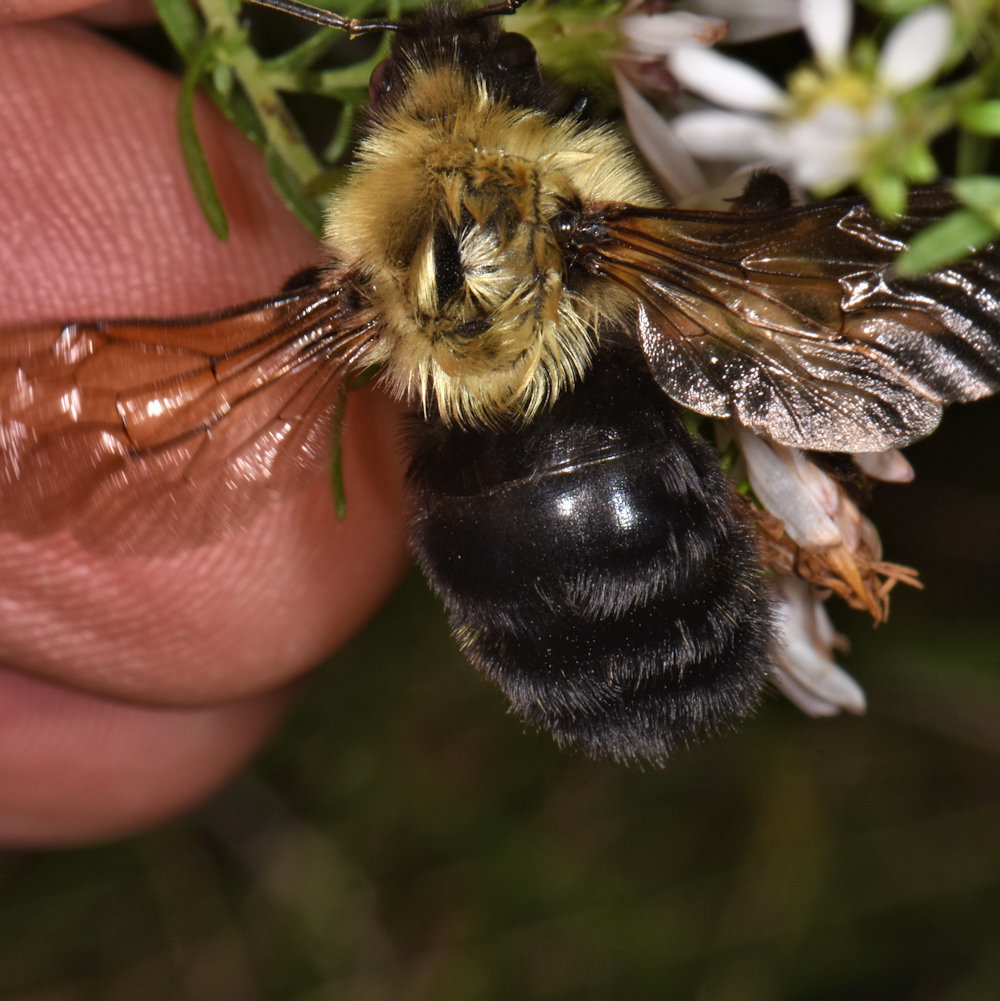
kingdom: Animalia
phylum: Arthropoda
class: Insecta
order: Hymenoptera
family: Apidae
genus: Bombus
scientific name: Bombus citrinus
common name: Lemon cuckoo bumble bee
